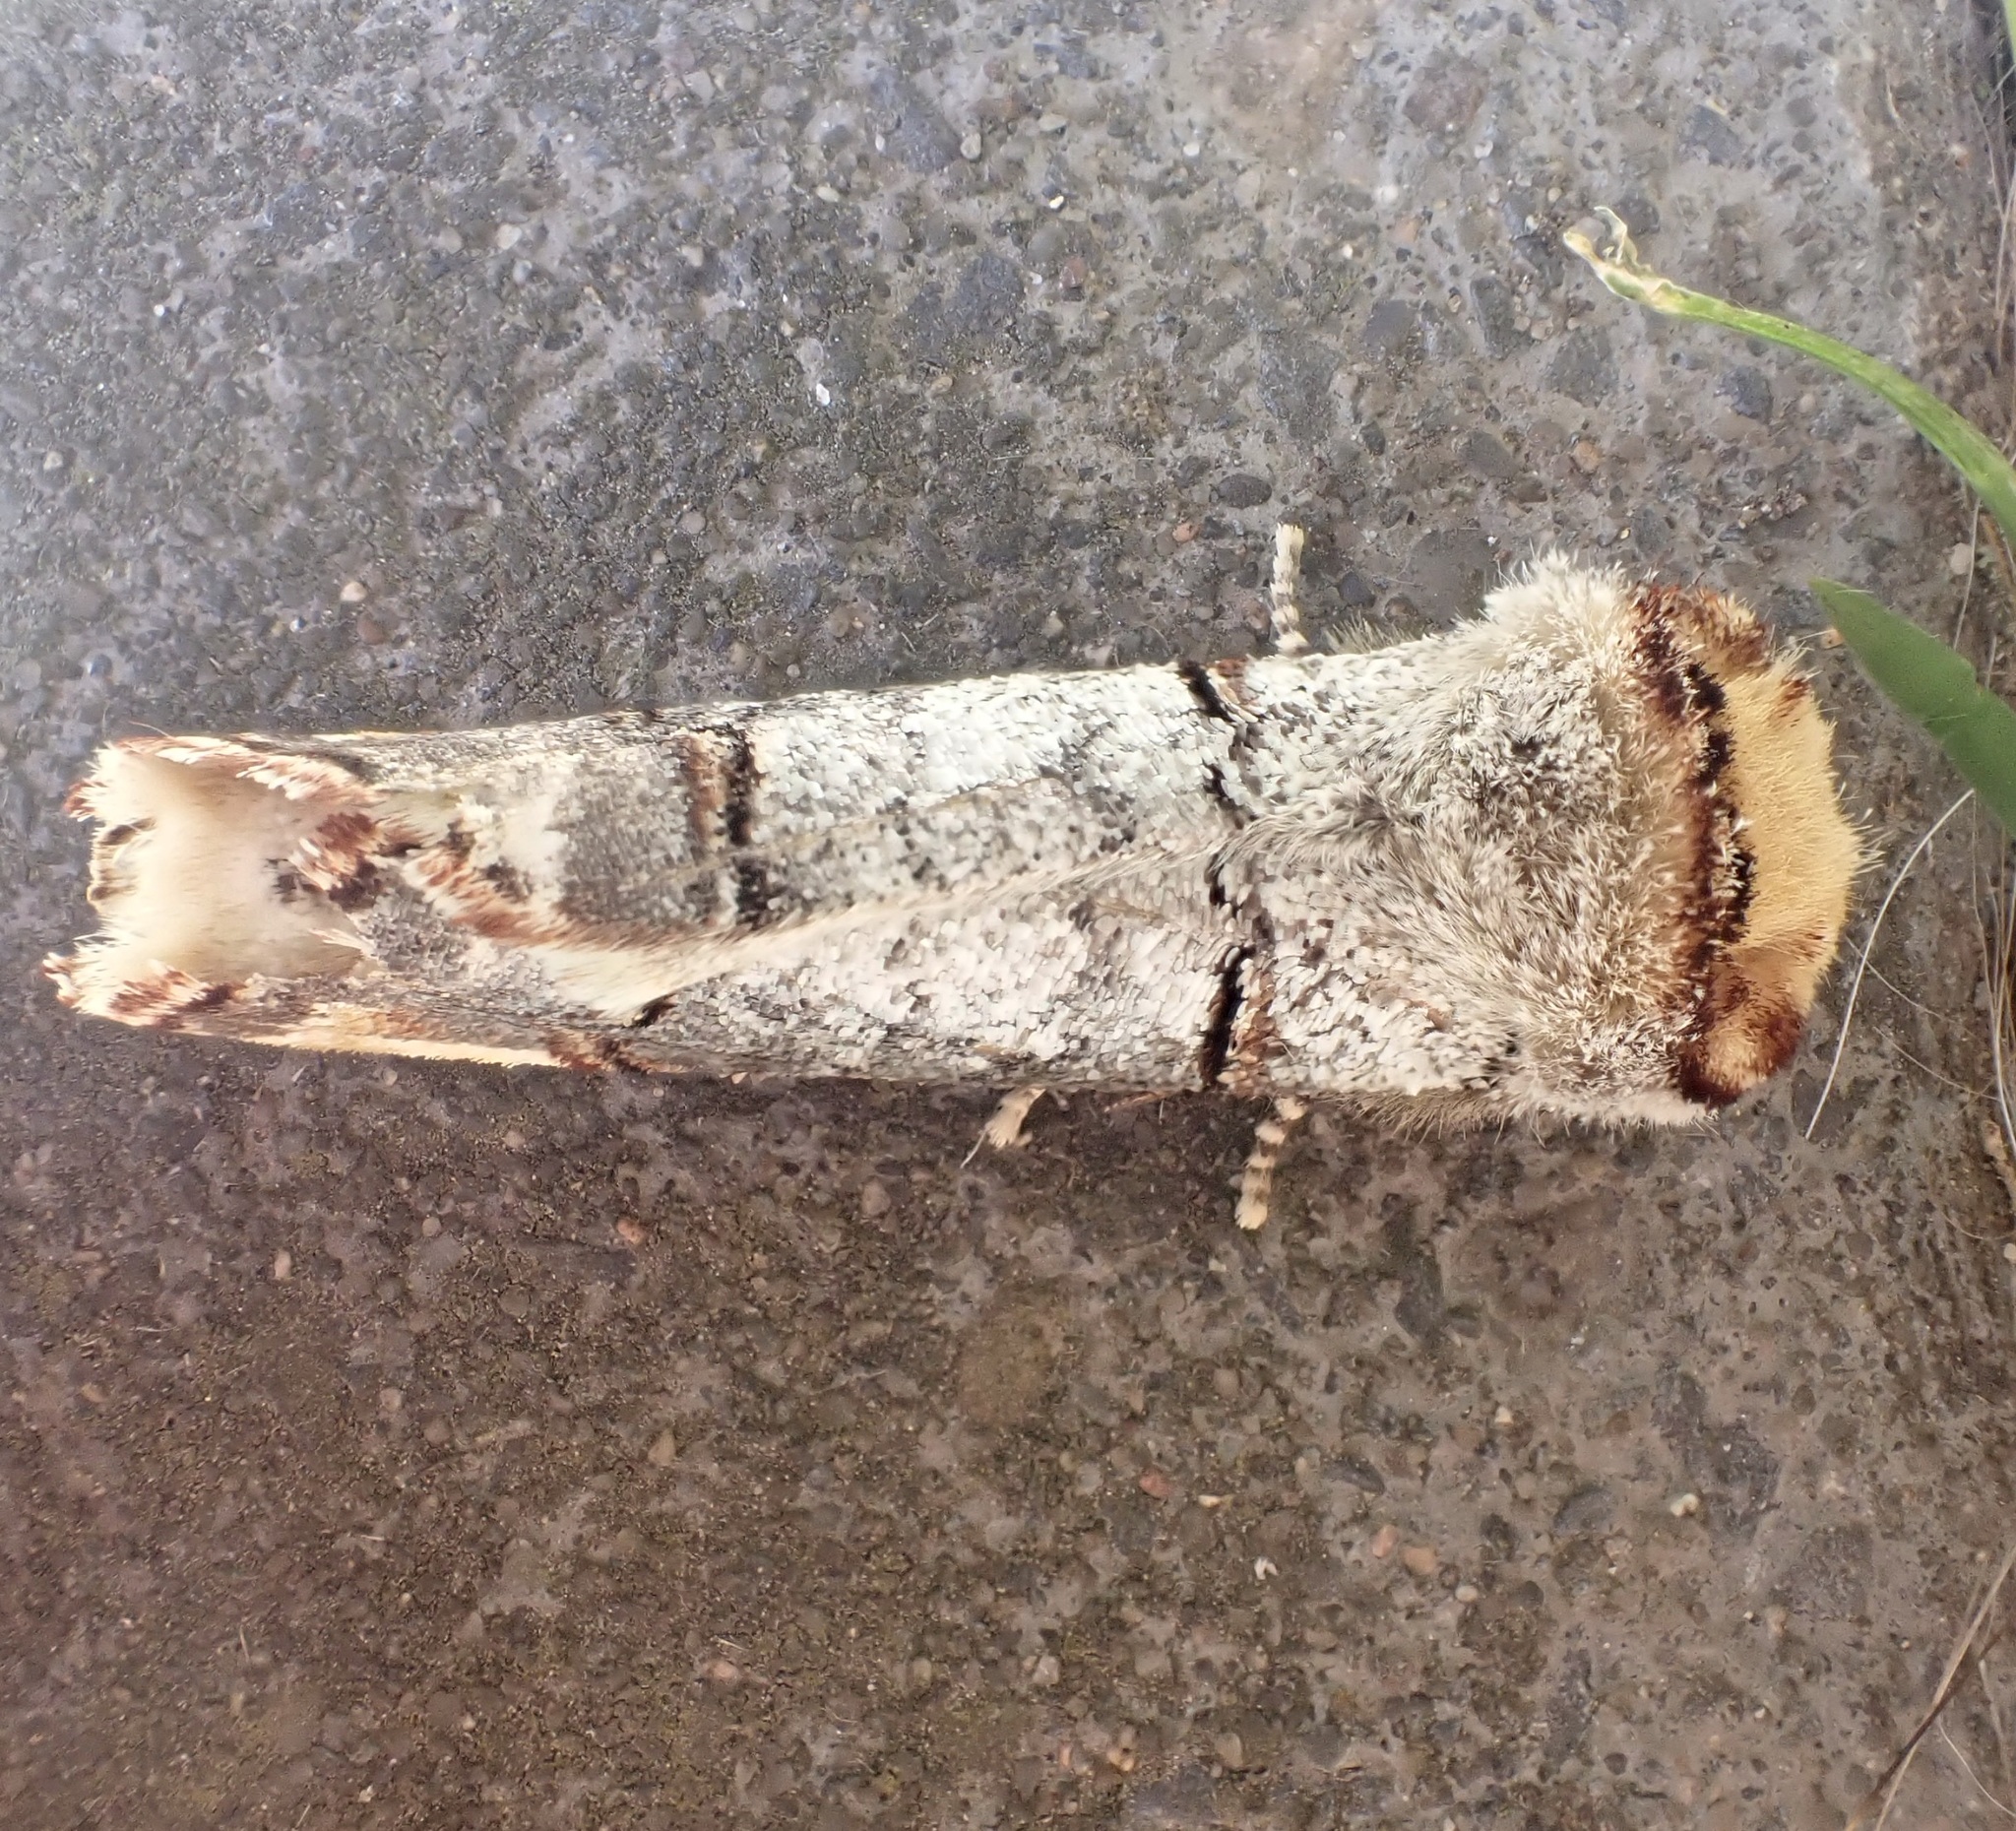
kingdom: Animalia
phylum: Arthropoda
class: Insecta
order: Lepidoptera
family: Notodontidae
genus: Phalera
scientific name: Phalera bucephala
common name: Buff-tip
